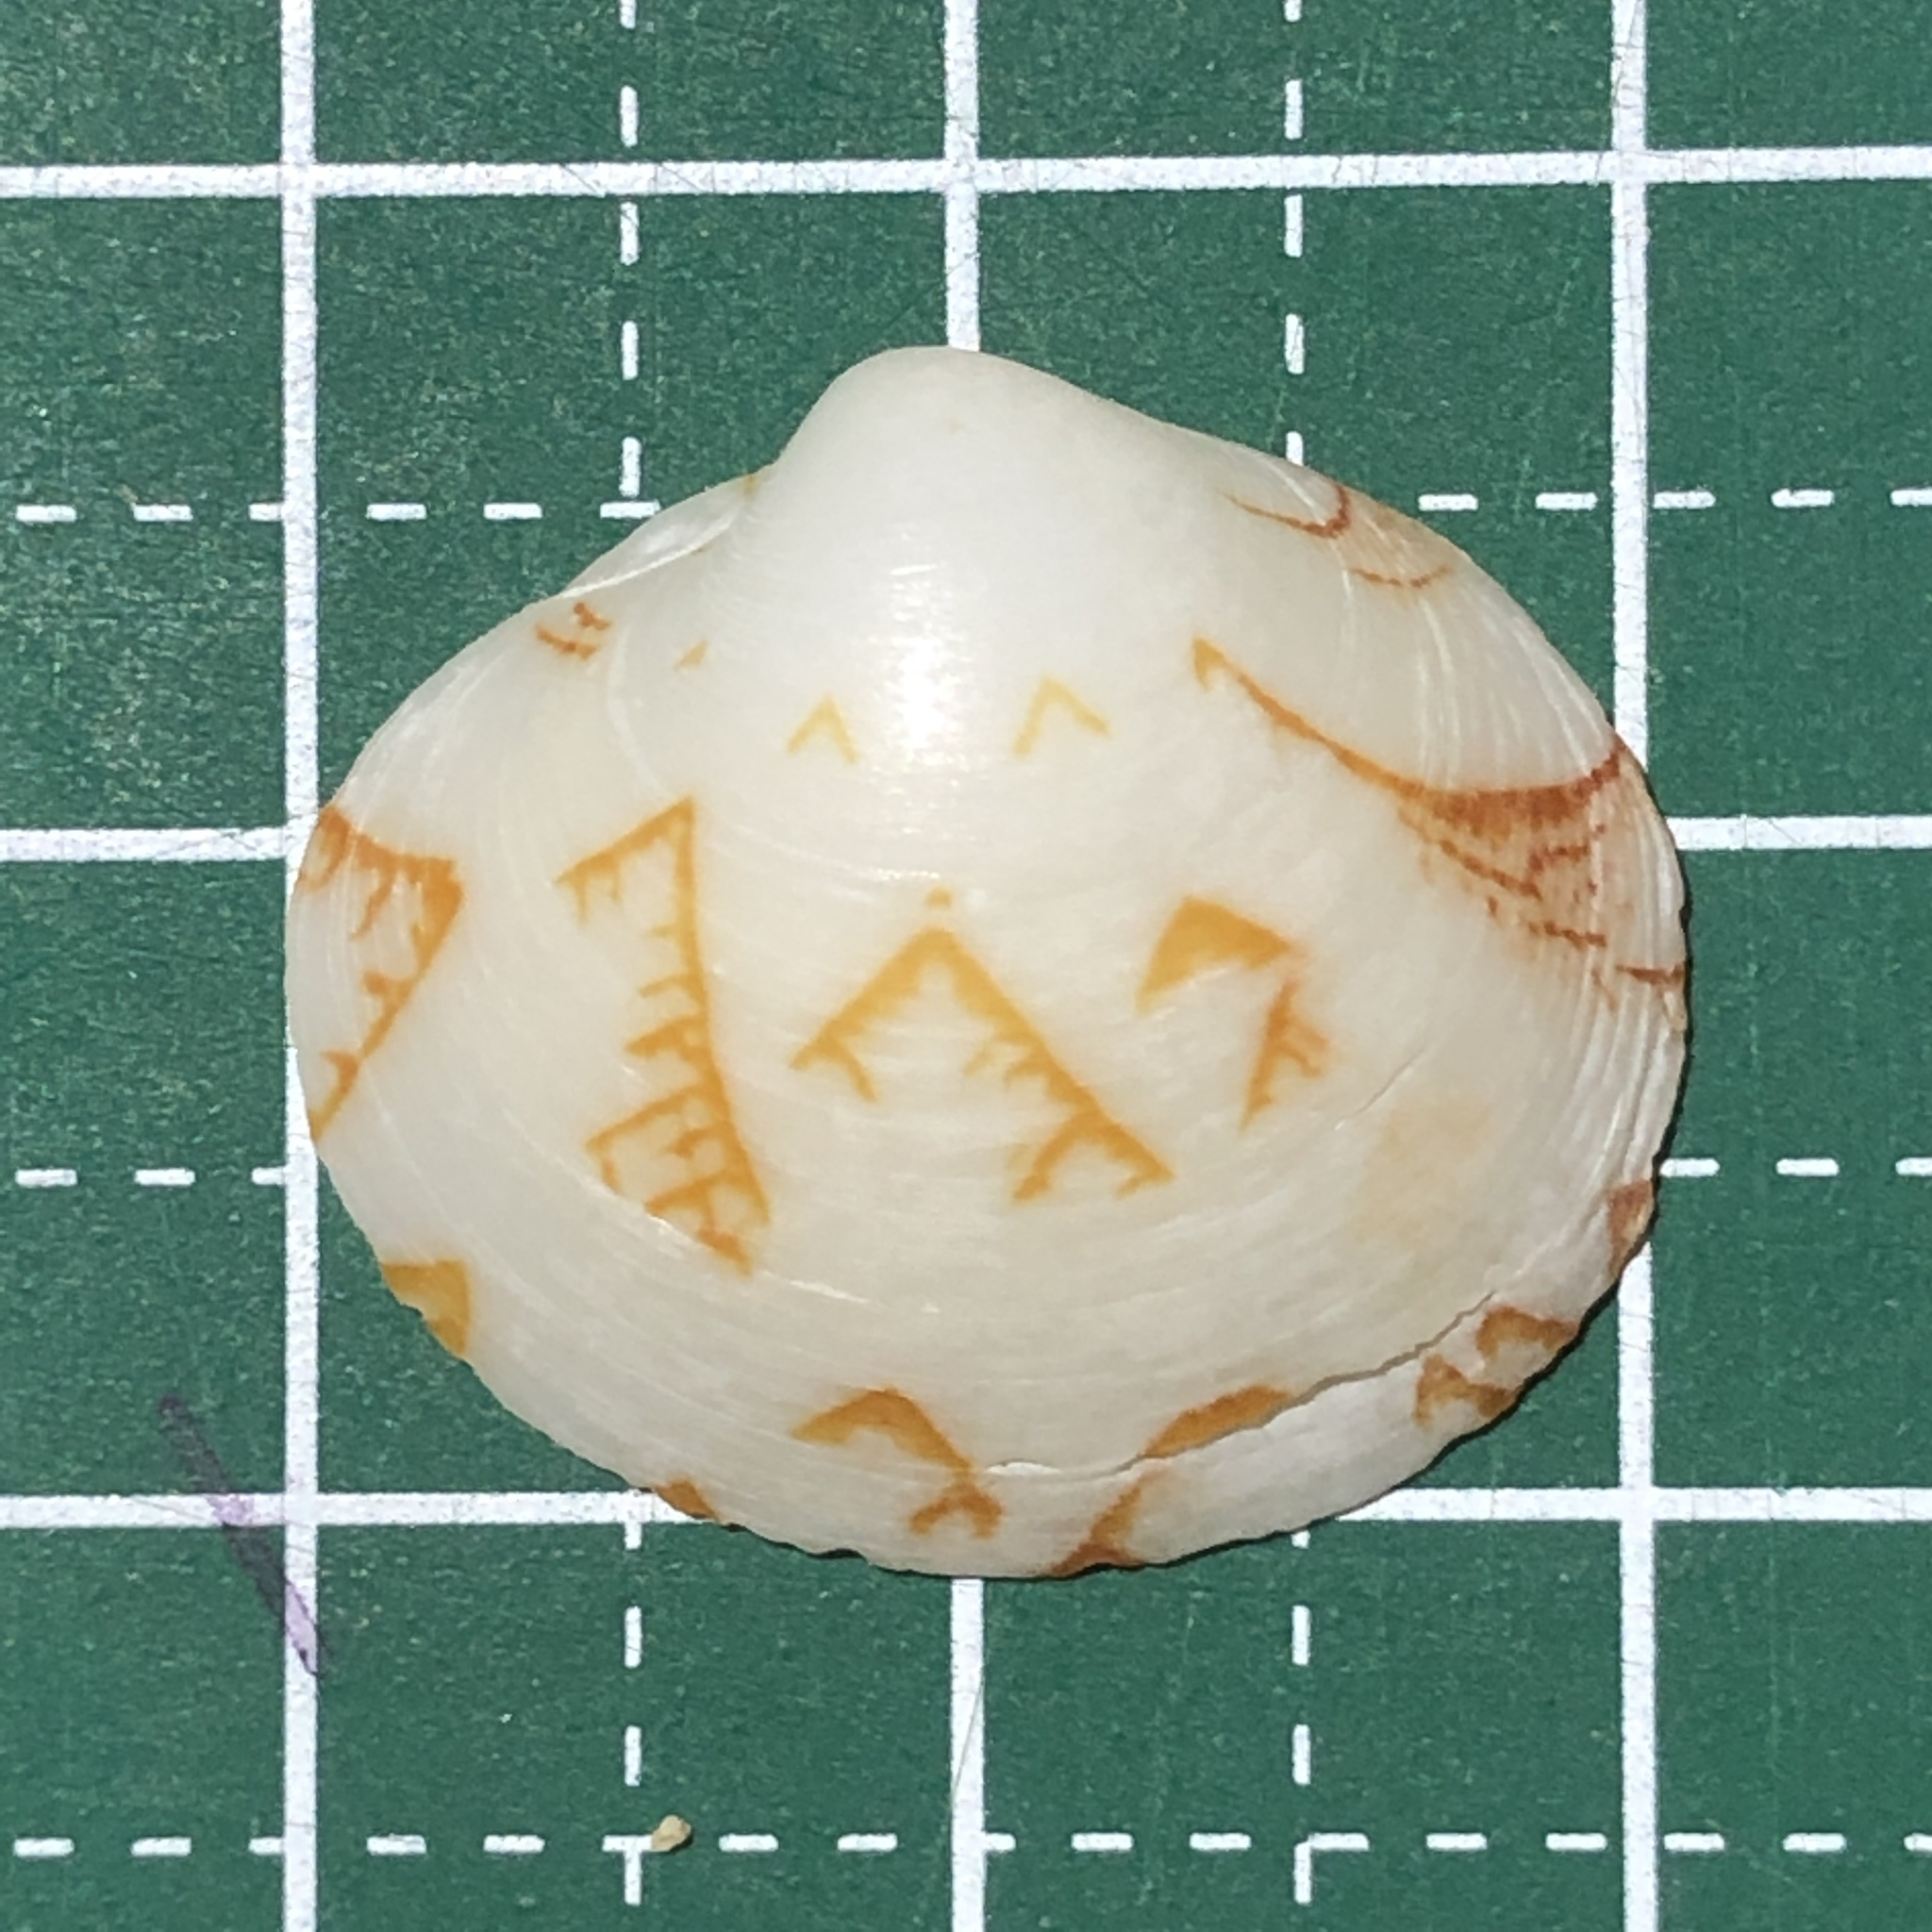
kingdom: Animalia
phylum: Mollusca
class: Bivalvia
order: Venerida
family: Veneridae
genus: Lioconcha
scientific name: Lioconcha castrensis
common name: Camp pitar-venus
